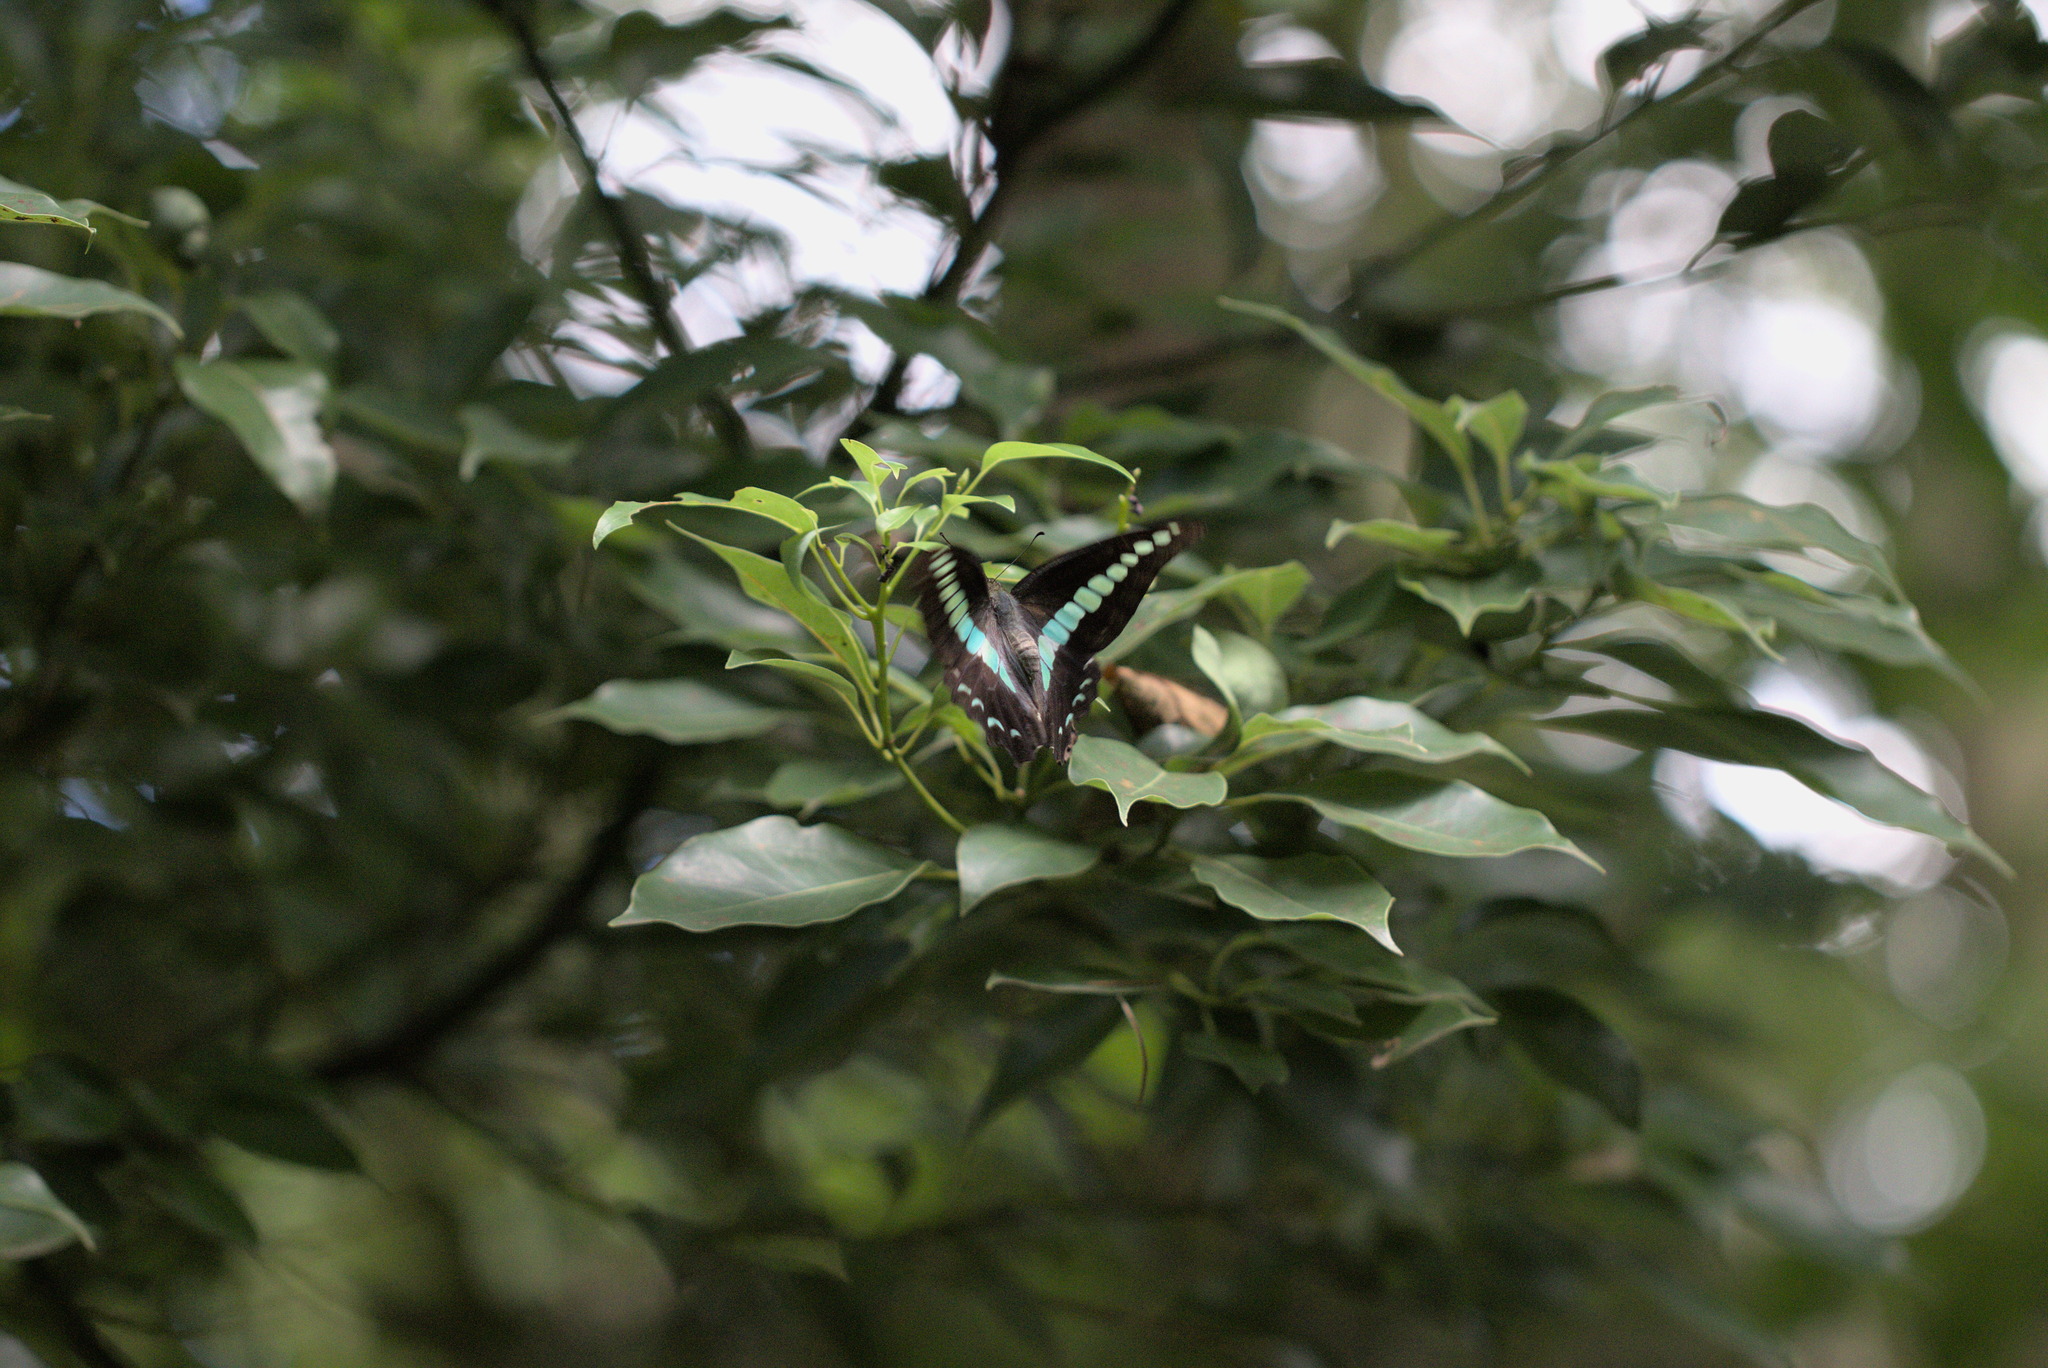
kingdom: Fungi
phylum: Ascomycota
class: Sordariomycetes
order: Microascales
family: Microascaceae
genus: Graphium
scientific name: Graphium sarpedon
